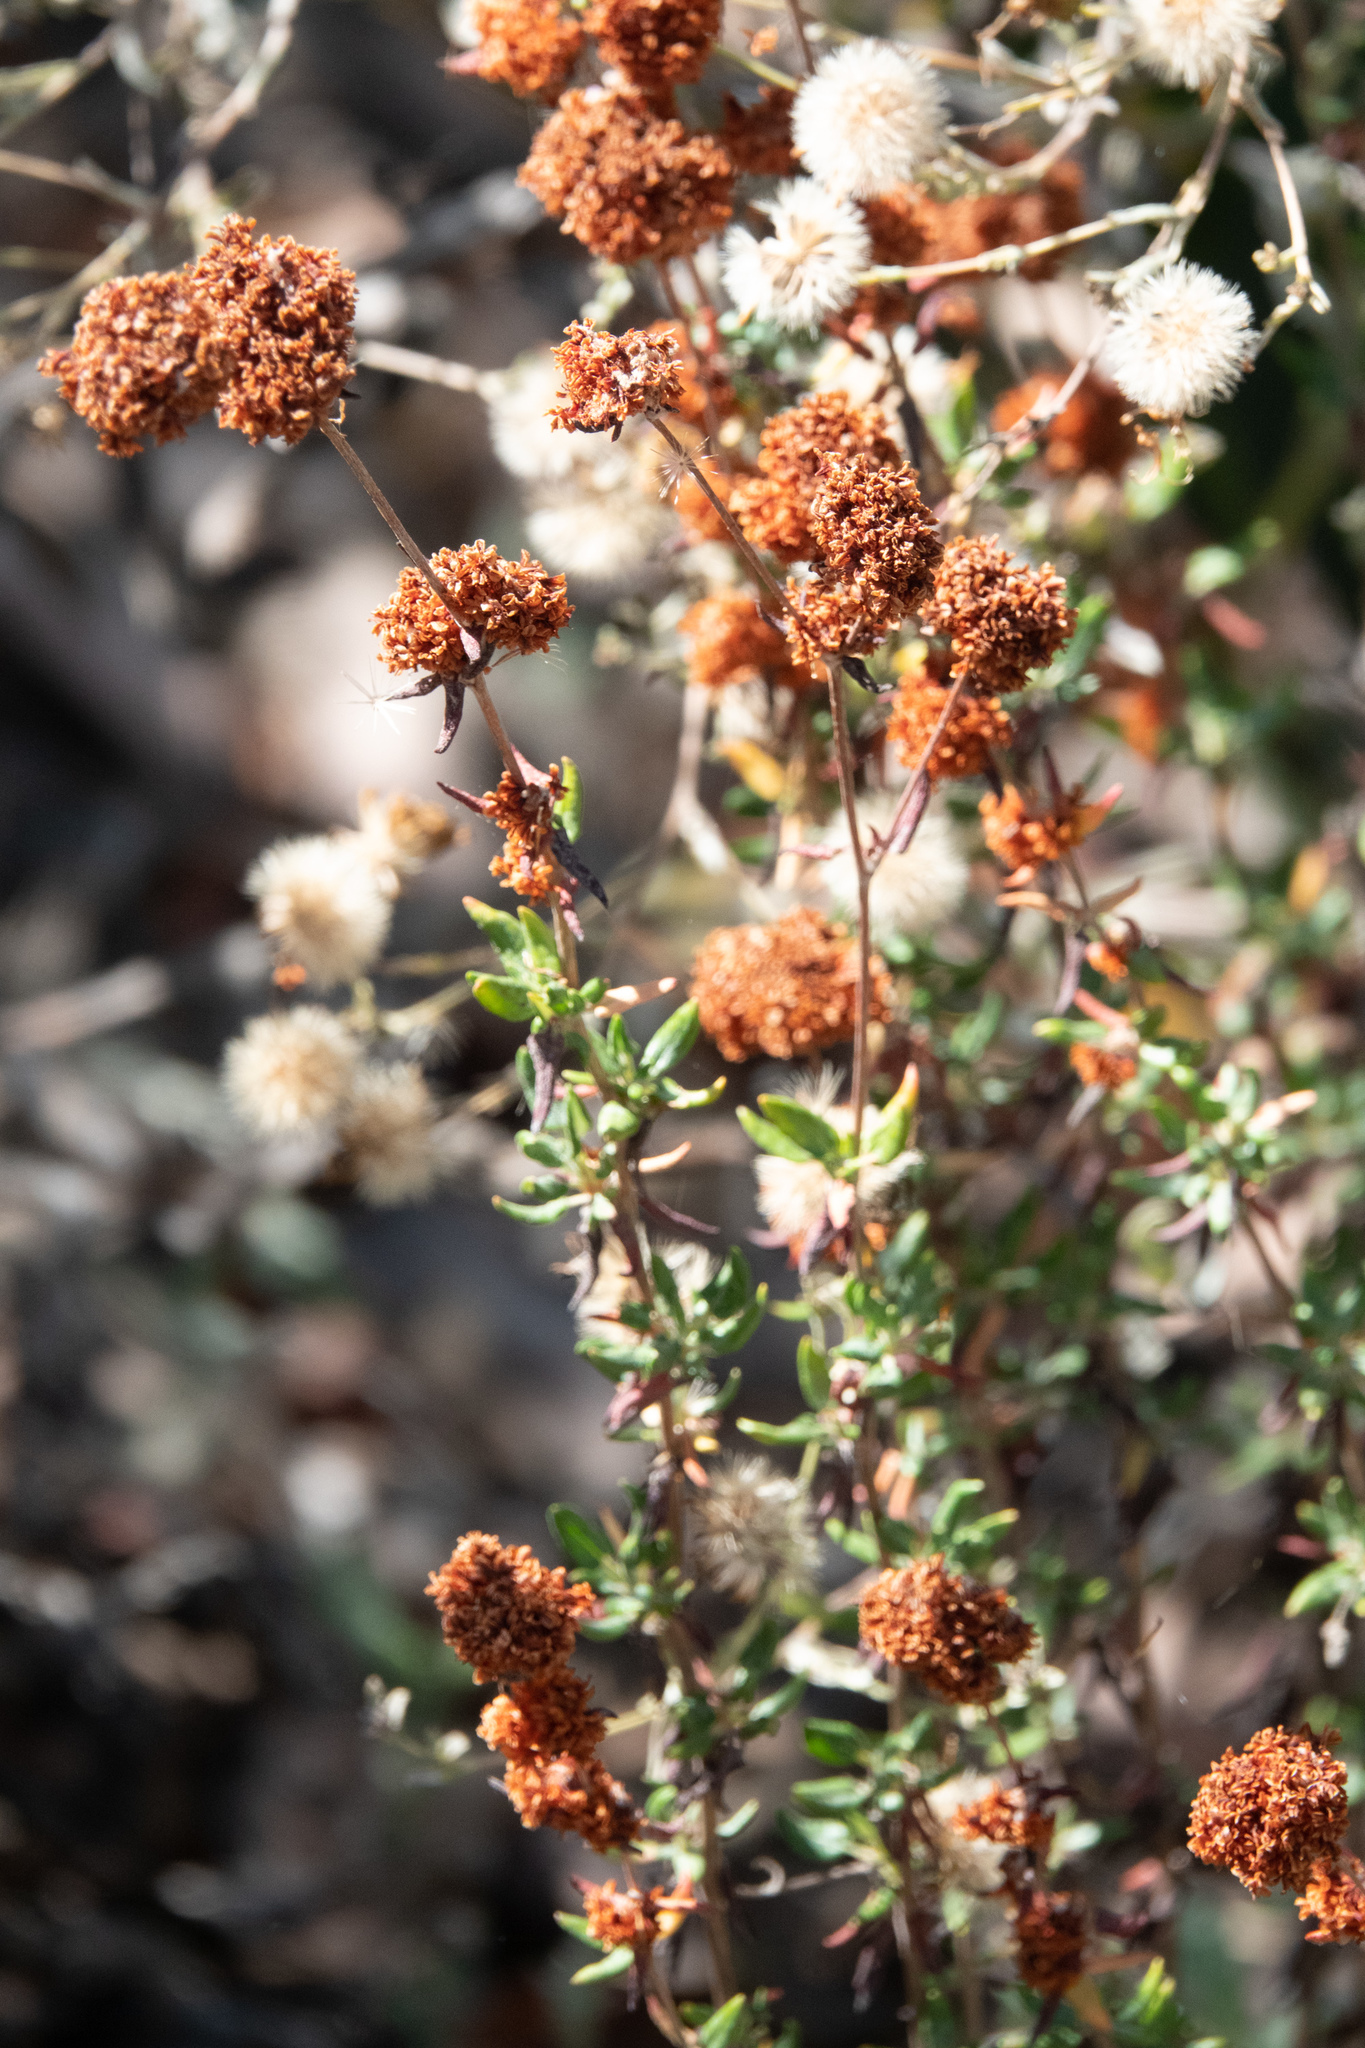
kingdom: Plantae
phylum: Tracheophyta
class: Magnoliopsida
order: Caryophyllales
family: Polygonaceae
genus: Eriogonum
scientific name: Eriogonum parvifolium
